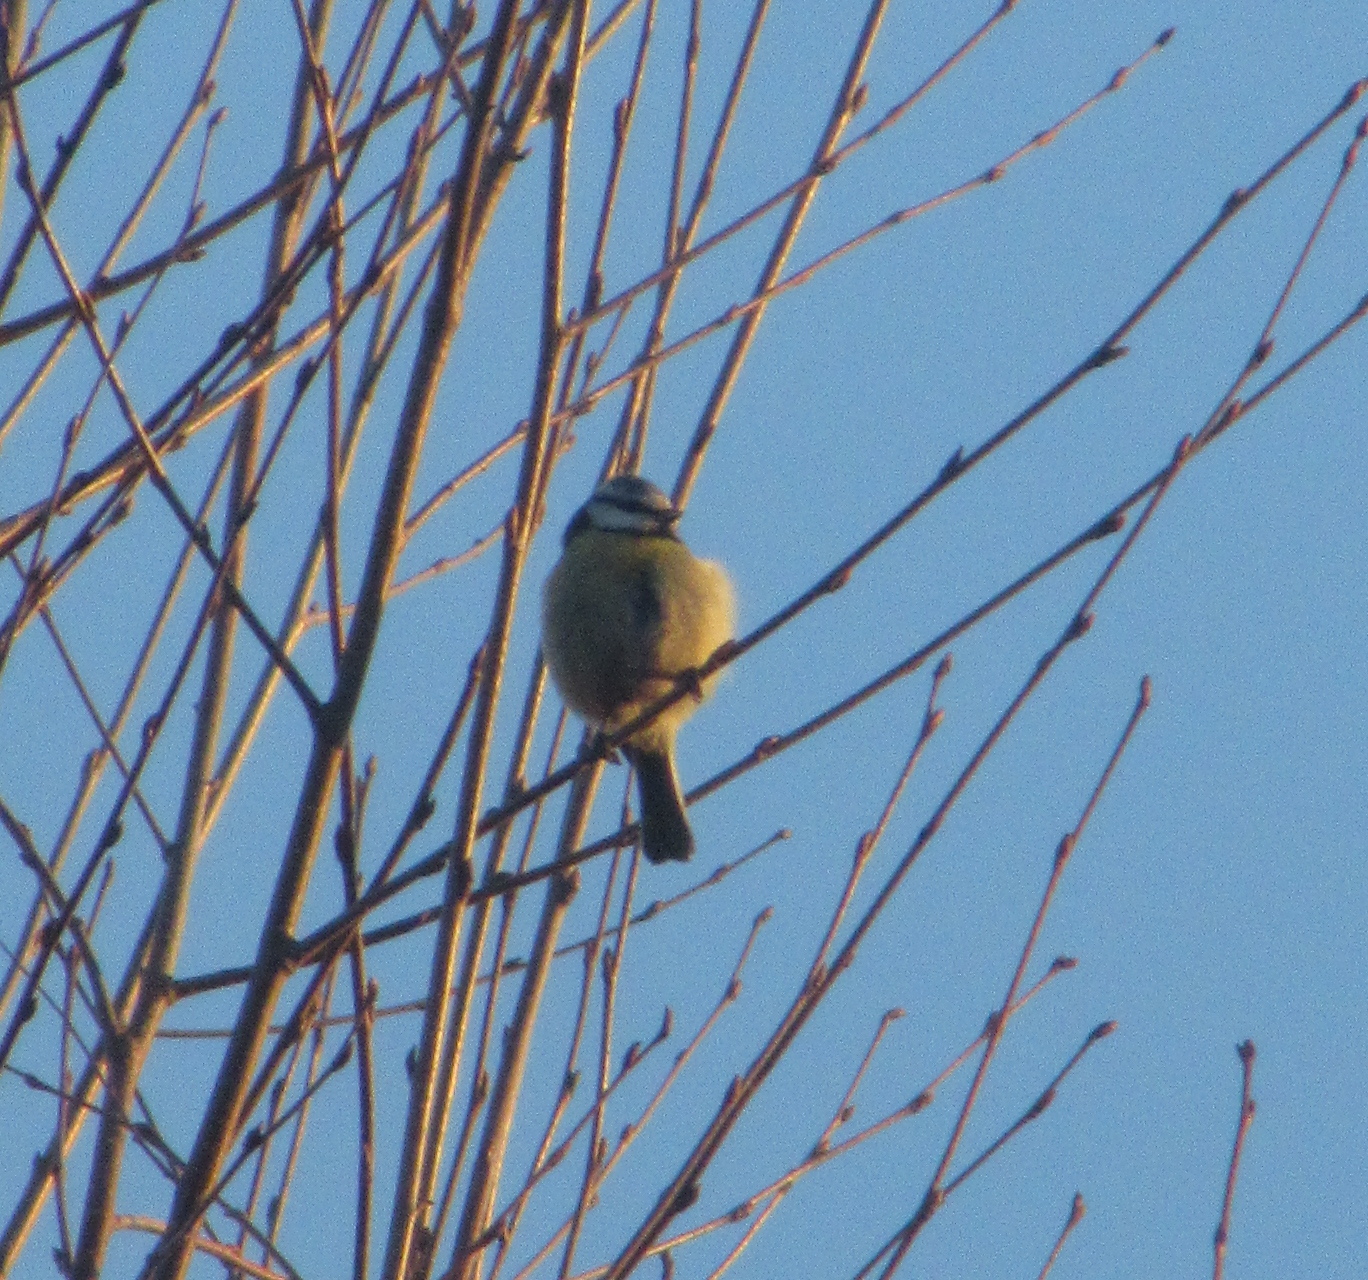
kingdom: Animalia
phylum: Chordata
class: Aves
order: Passeriformes
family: Paridae
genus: Cyanistes
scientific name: Cyanistes caeruleus
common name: Eurasian blue tit
